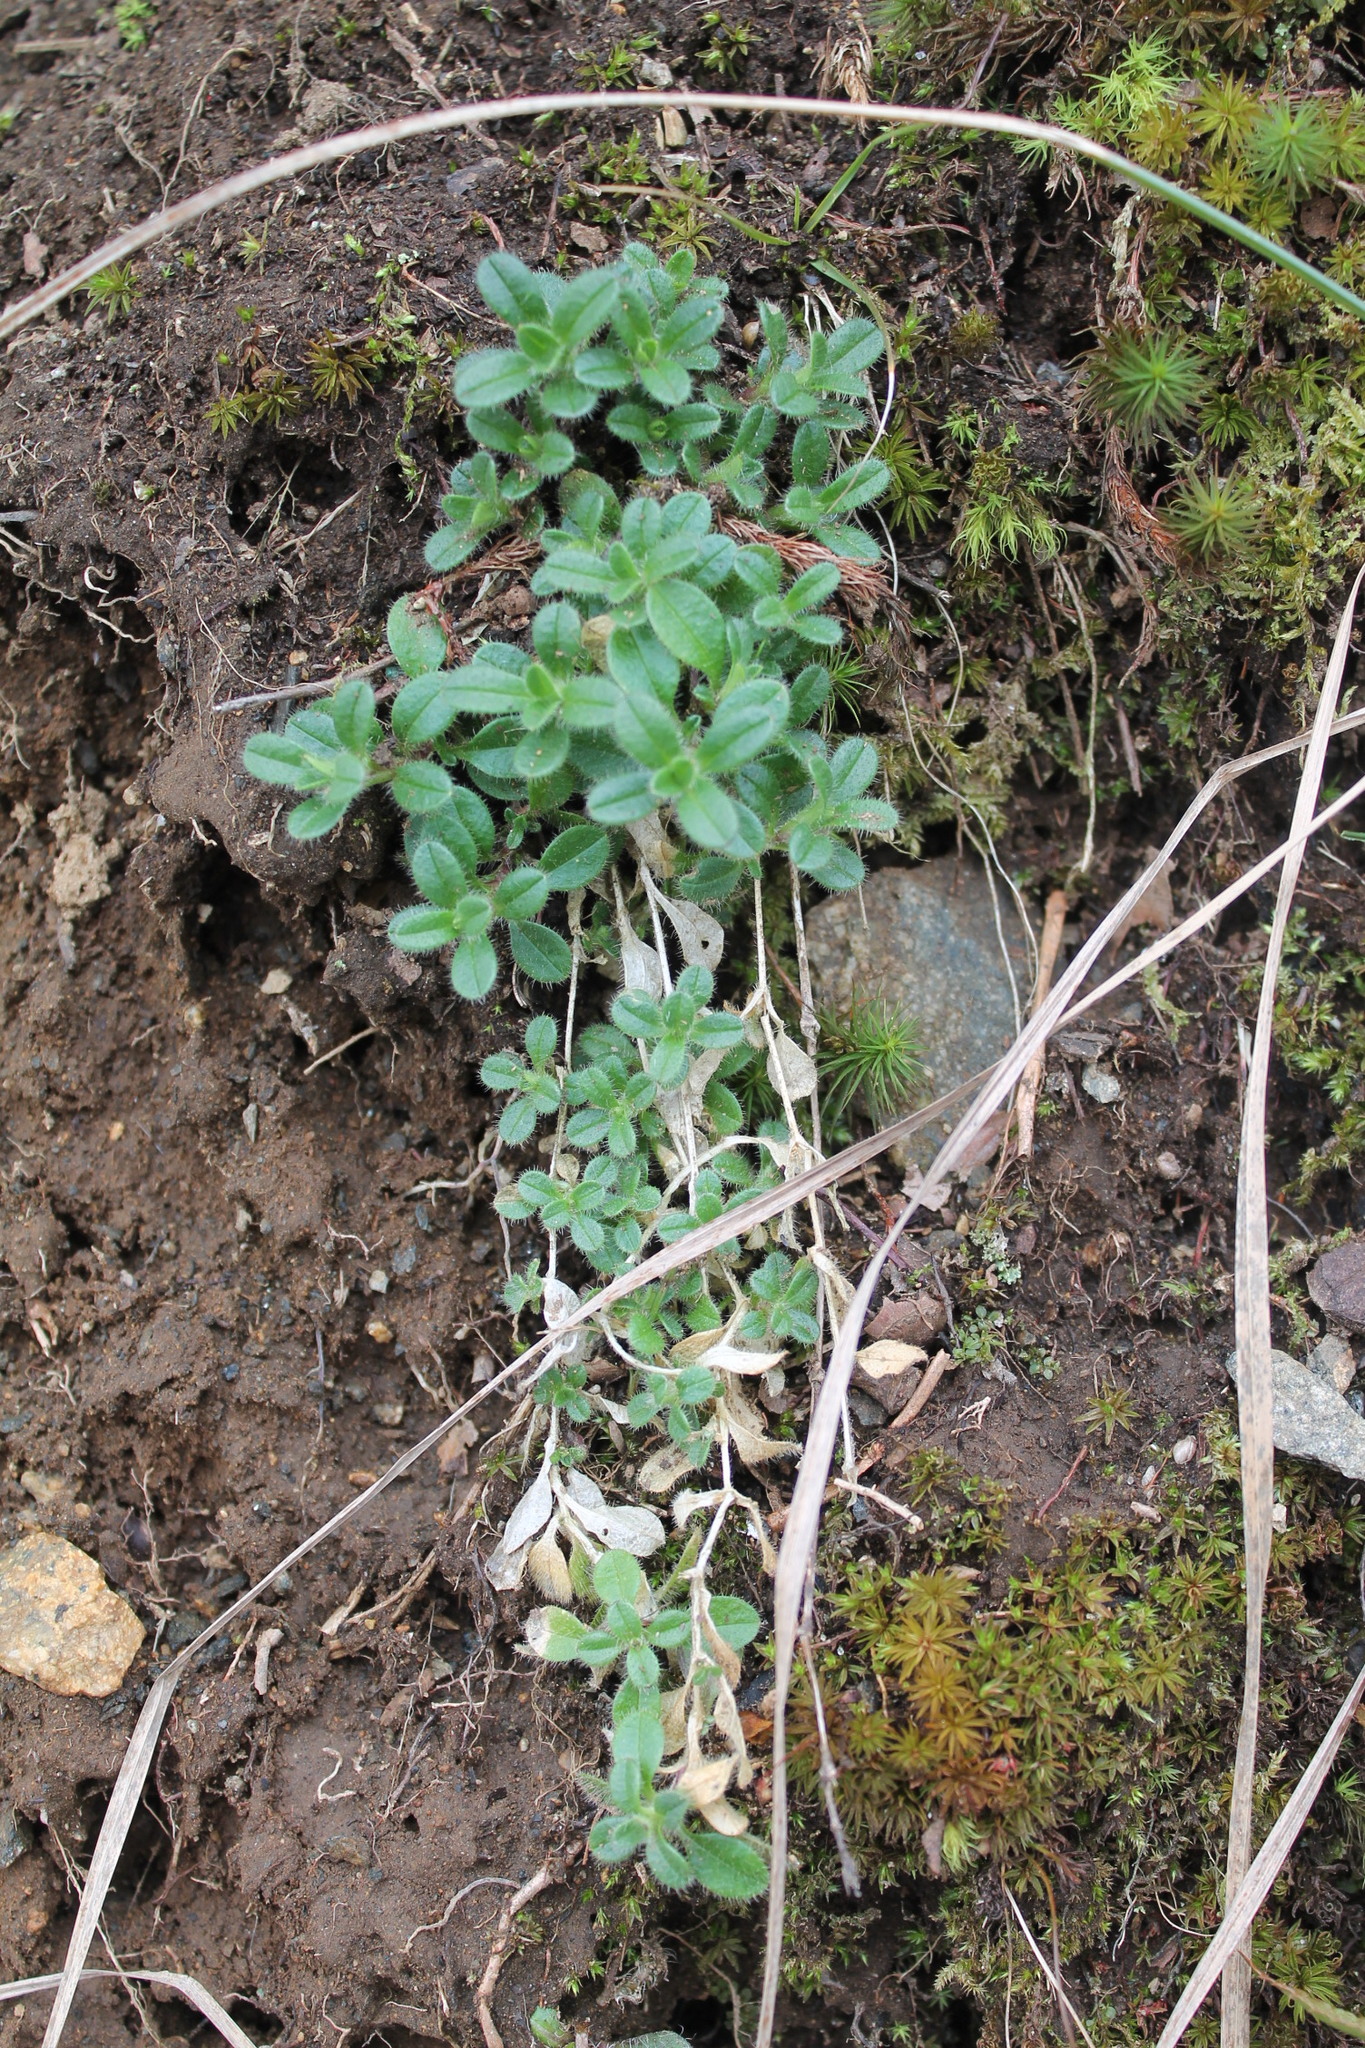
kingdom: Plantae
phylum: Tracheophyta
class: Magnoliopsida
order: Caryophyllales
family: Caryophyllaceae
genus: Cerastium
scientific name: Cerastium fontanum
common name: Common mouse-ear
